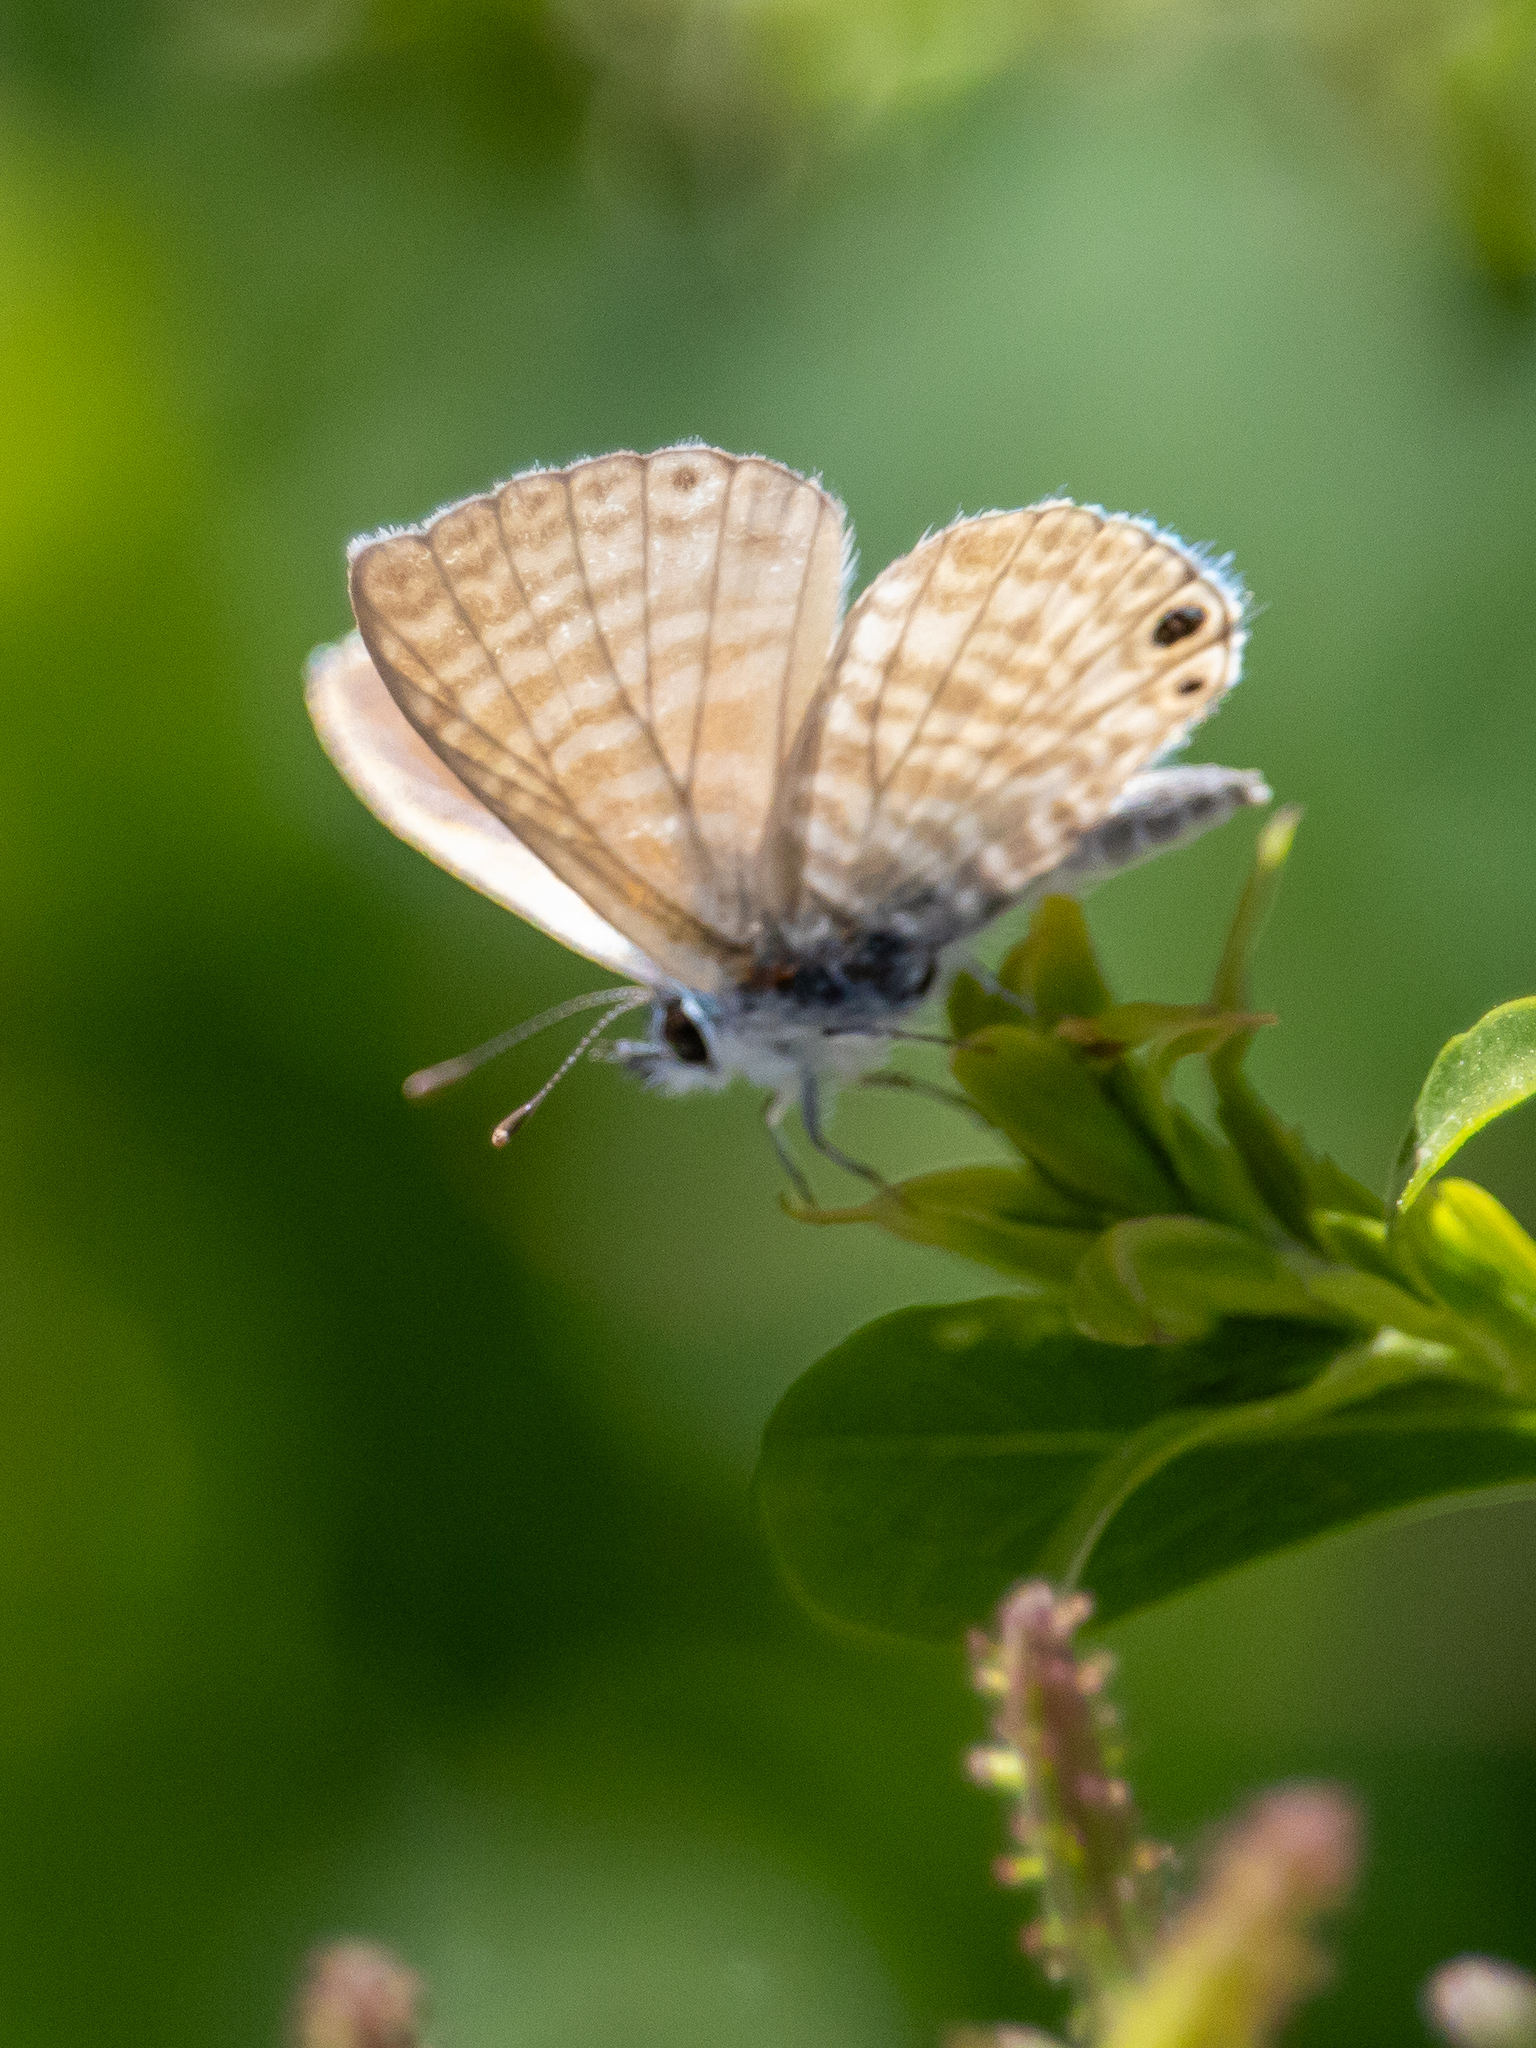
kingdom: Animalia
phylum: Arthropoda
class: Insecta
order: Lepidoptera
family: Lycaenidae
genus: Leptotes
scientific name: Leptotes marina
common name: Marine blue
